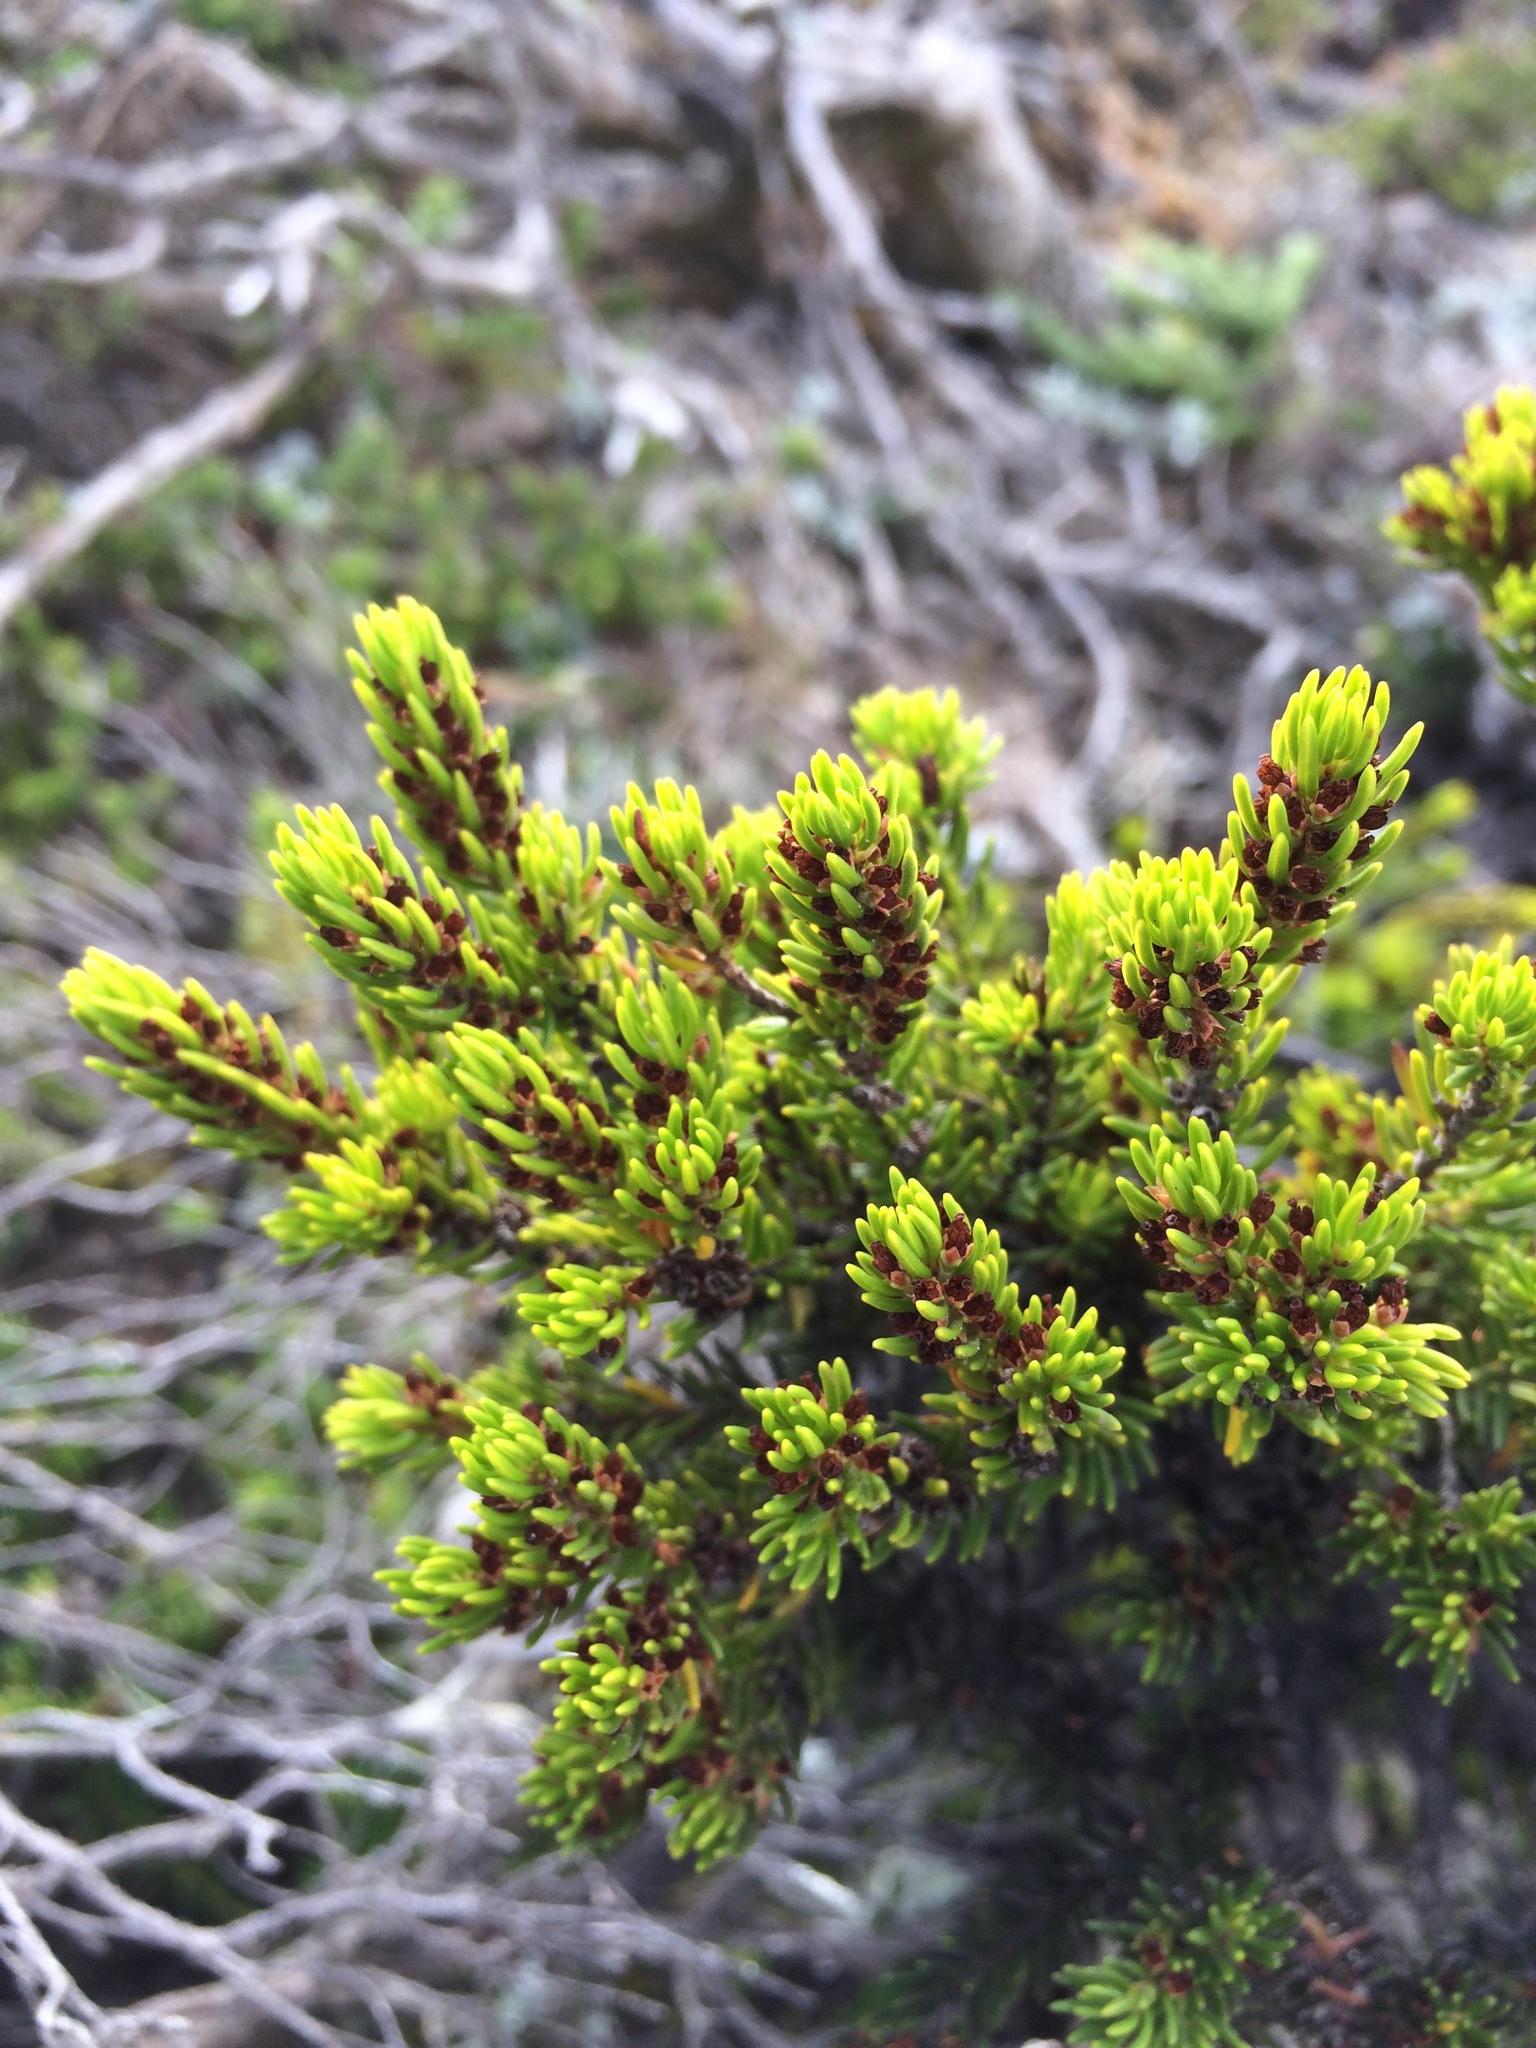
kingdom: Plantae
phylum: Tracheophyta
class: Magnoliopsida
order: Ericales
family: Ericaceae
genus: Erica
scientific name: Erica coarctata
